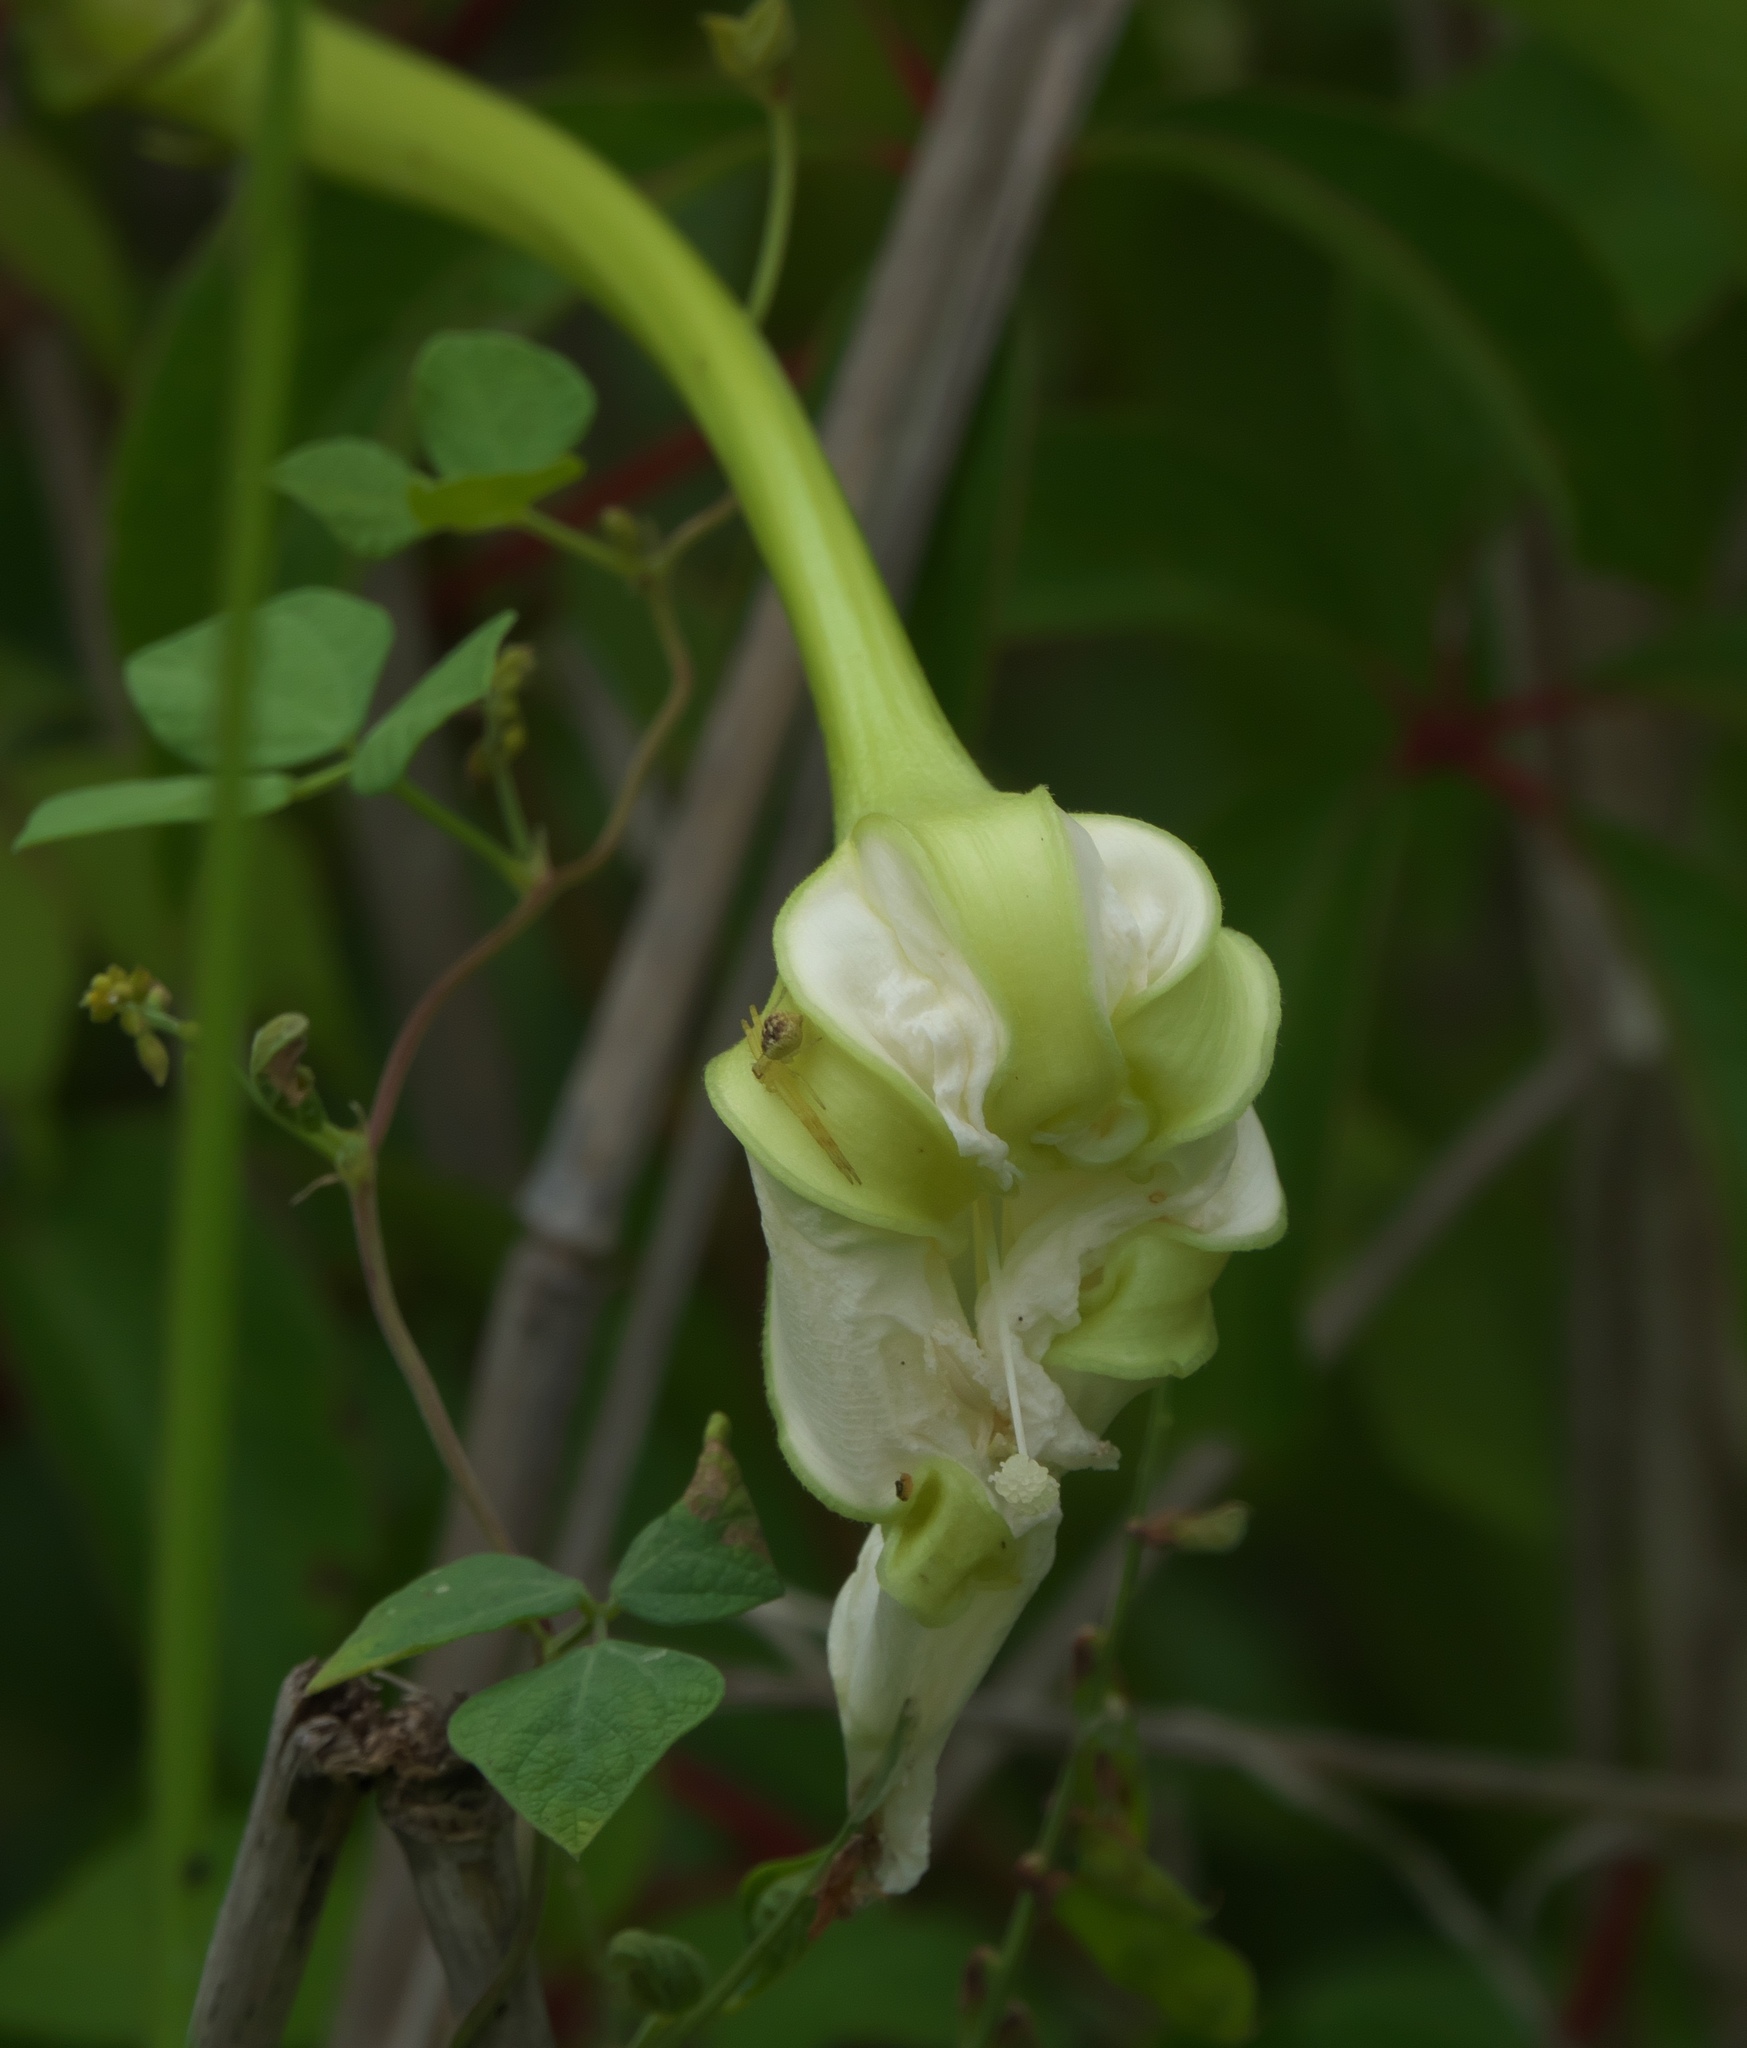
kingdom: Plantae
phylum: Tracheophyta
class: Magnoliopsida
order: Solanales
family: Convolvulaceae
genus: Ipomoea
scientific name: Ipomoea alba
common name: Moonflower
